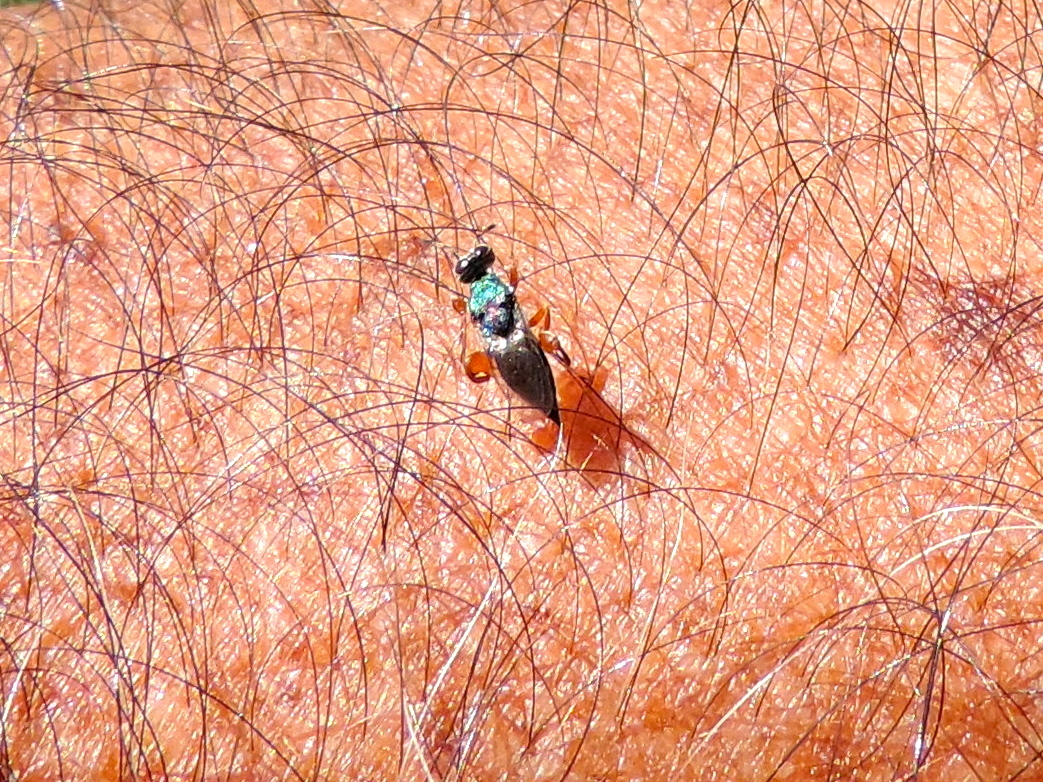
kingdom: Animalia
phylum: Arthropoda
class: Insecta
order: Hymenoptera
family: Pteromalidae
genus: Chalcedectus
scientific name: Chalcedectus
